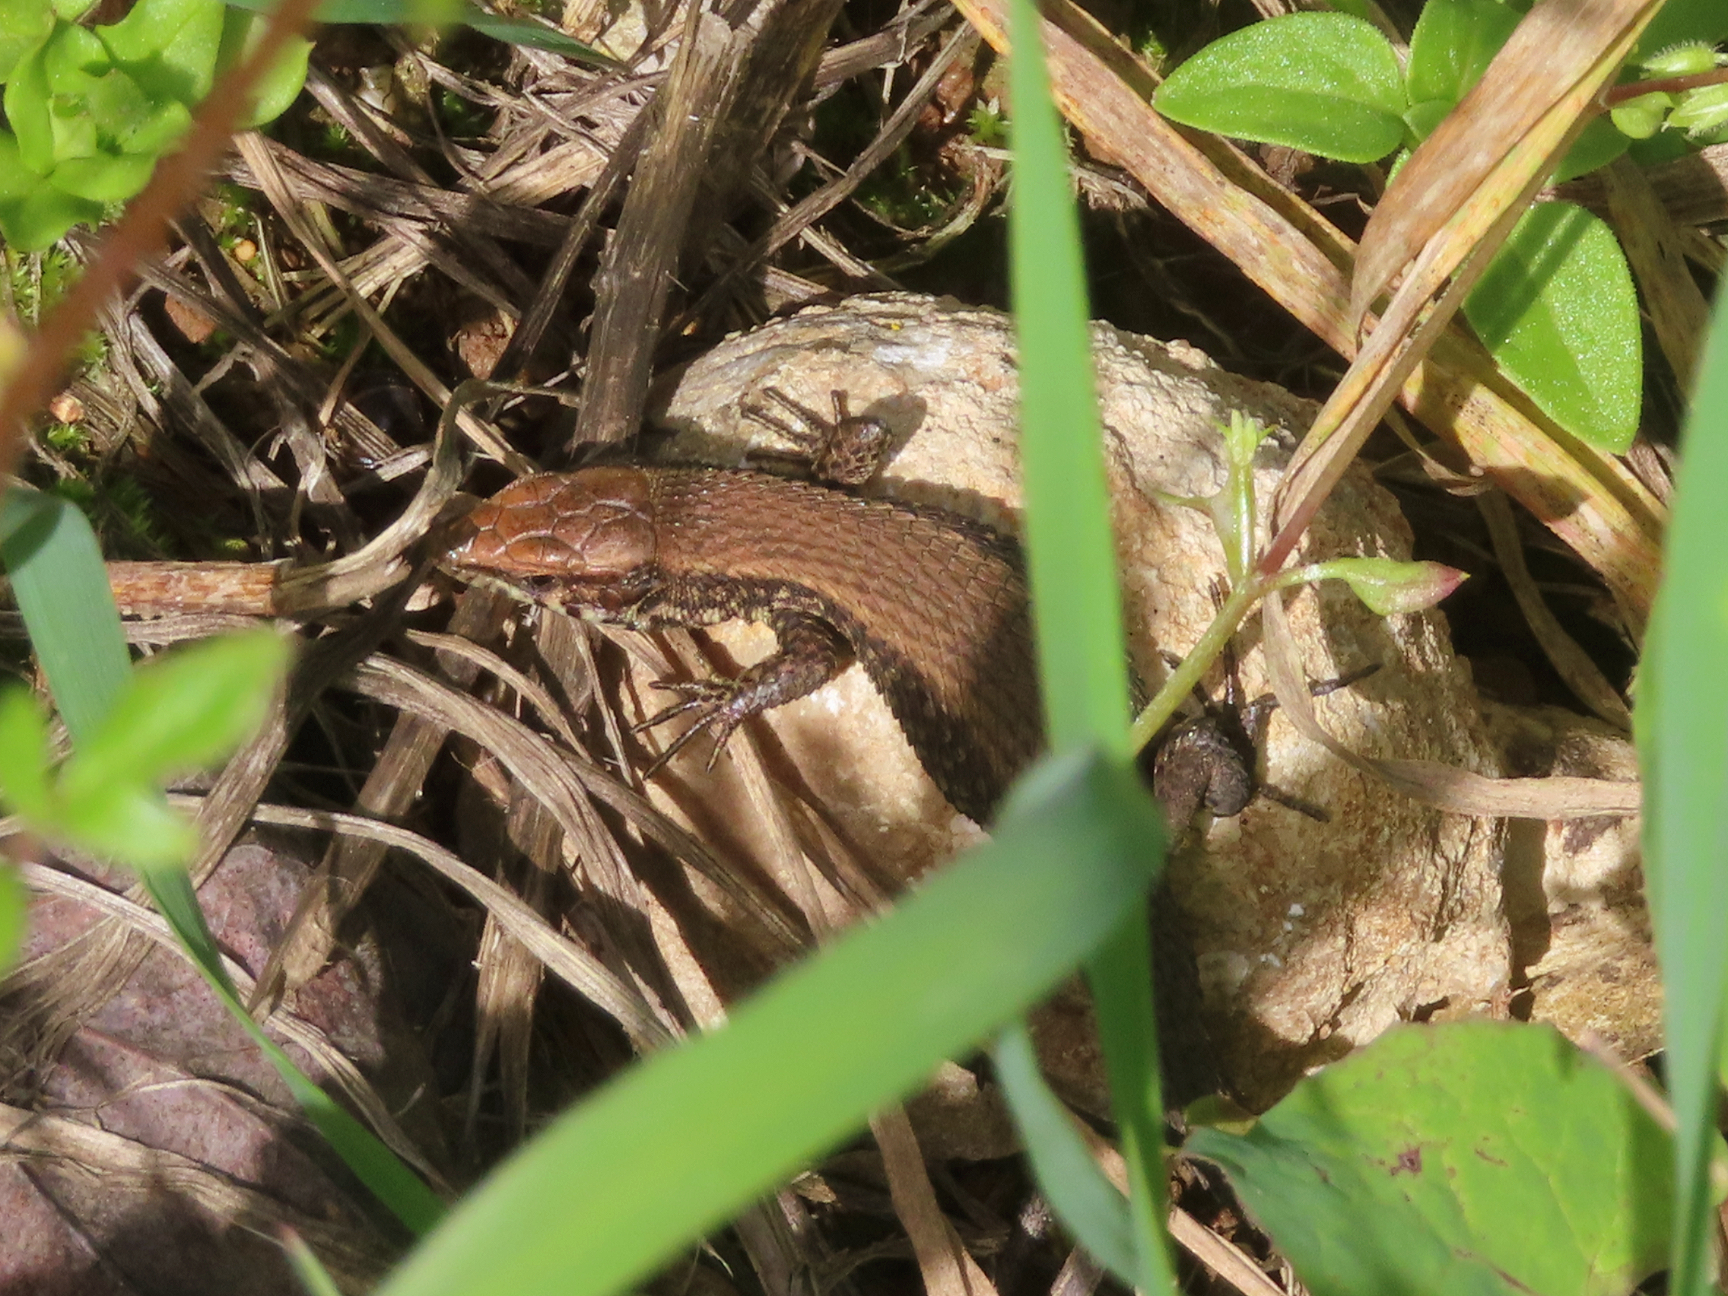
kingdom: Animalia
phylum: Chordata
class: Squamata
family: Lacertidae
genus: Algyroides
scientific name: Algyroides moreoticus
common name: Greek algyroides
